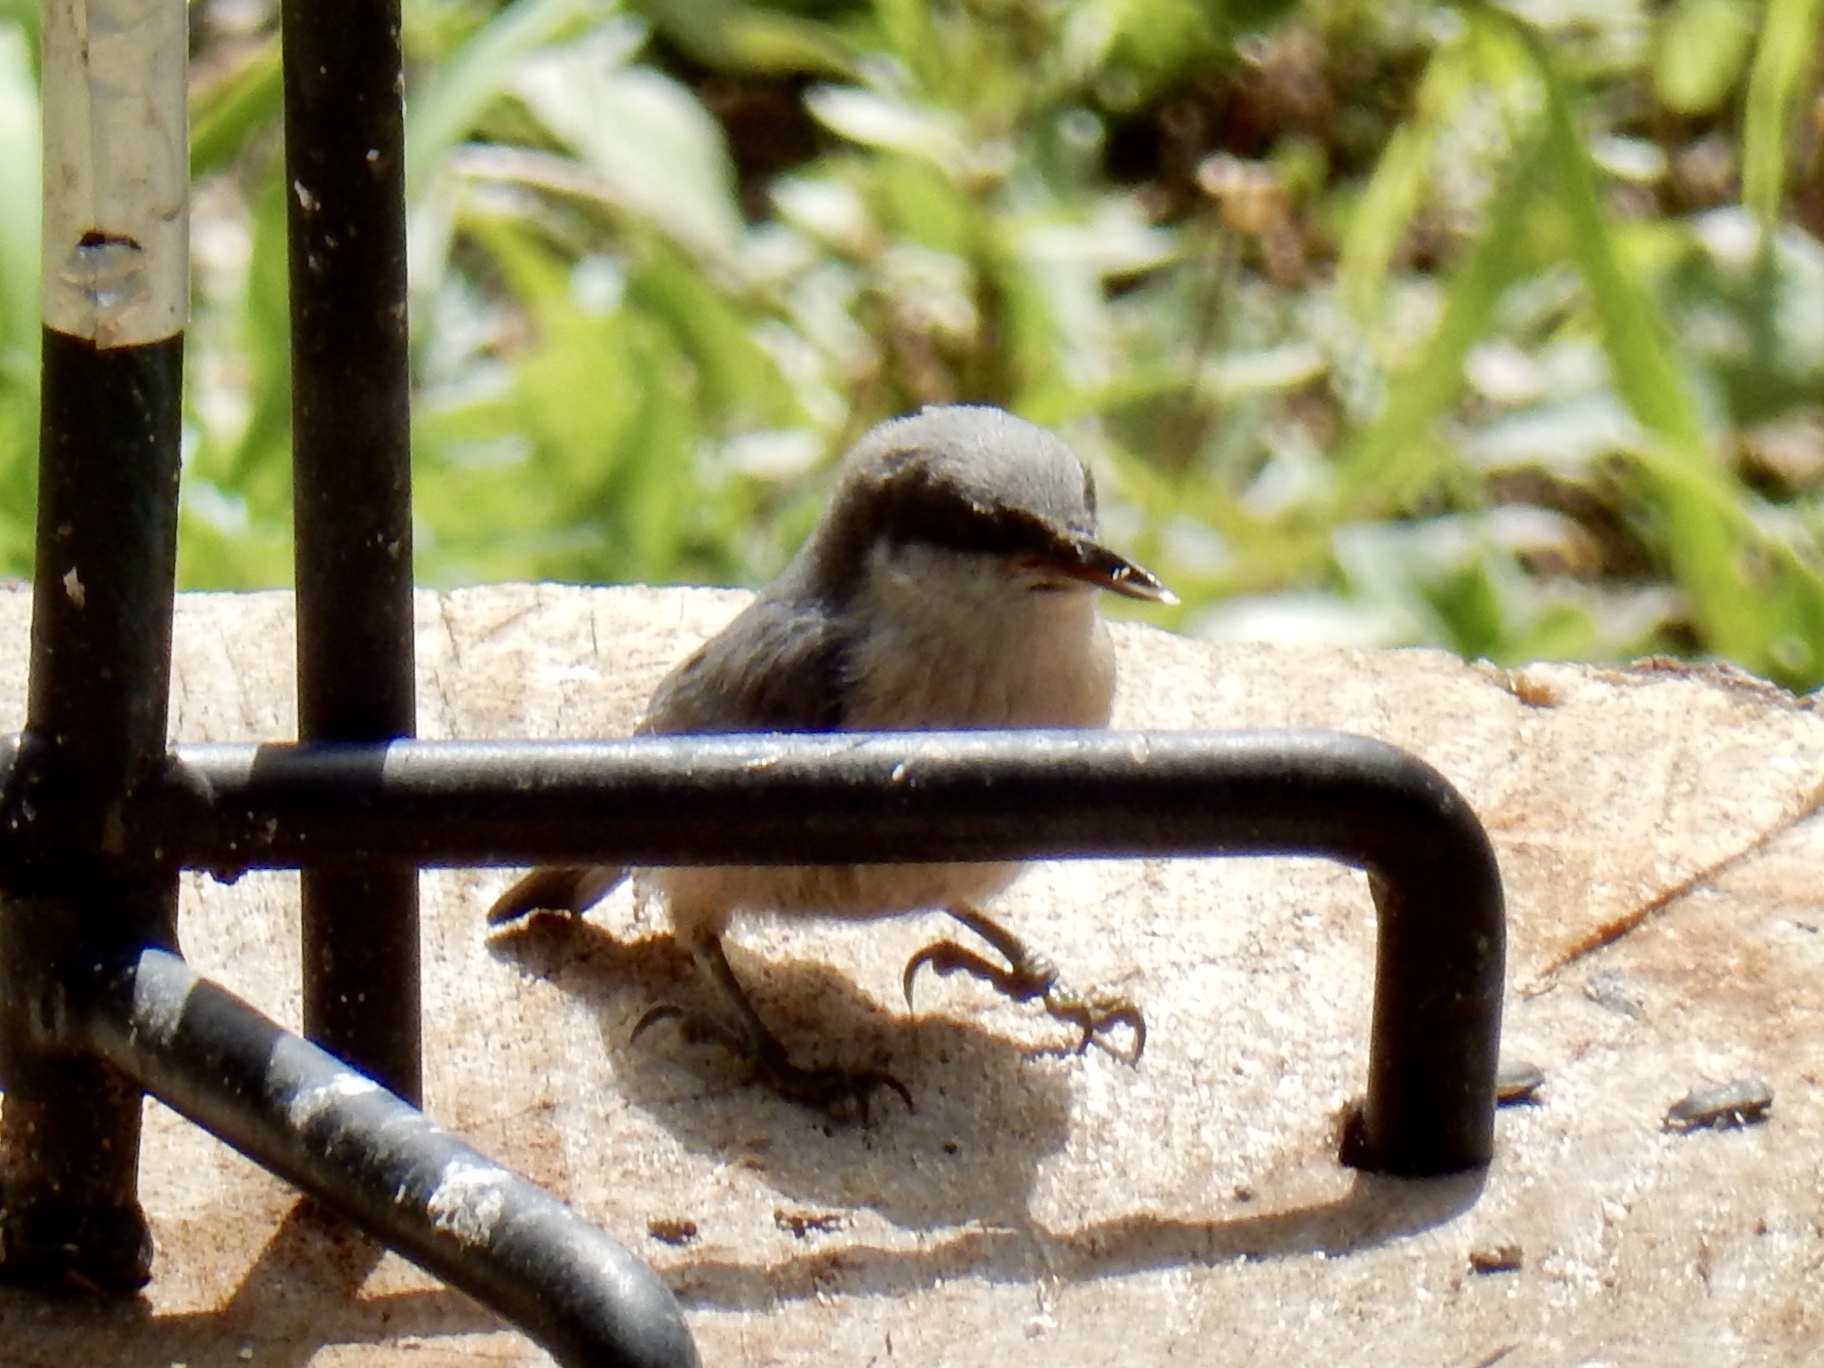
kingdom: Animalia
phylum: Chordata
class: Aves
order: Passeriformes
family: Sittidae
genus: Sitta
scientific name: Sitta pygmaea
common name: Pygmy nuthatch
